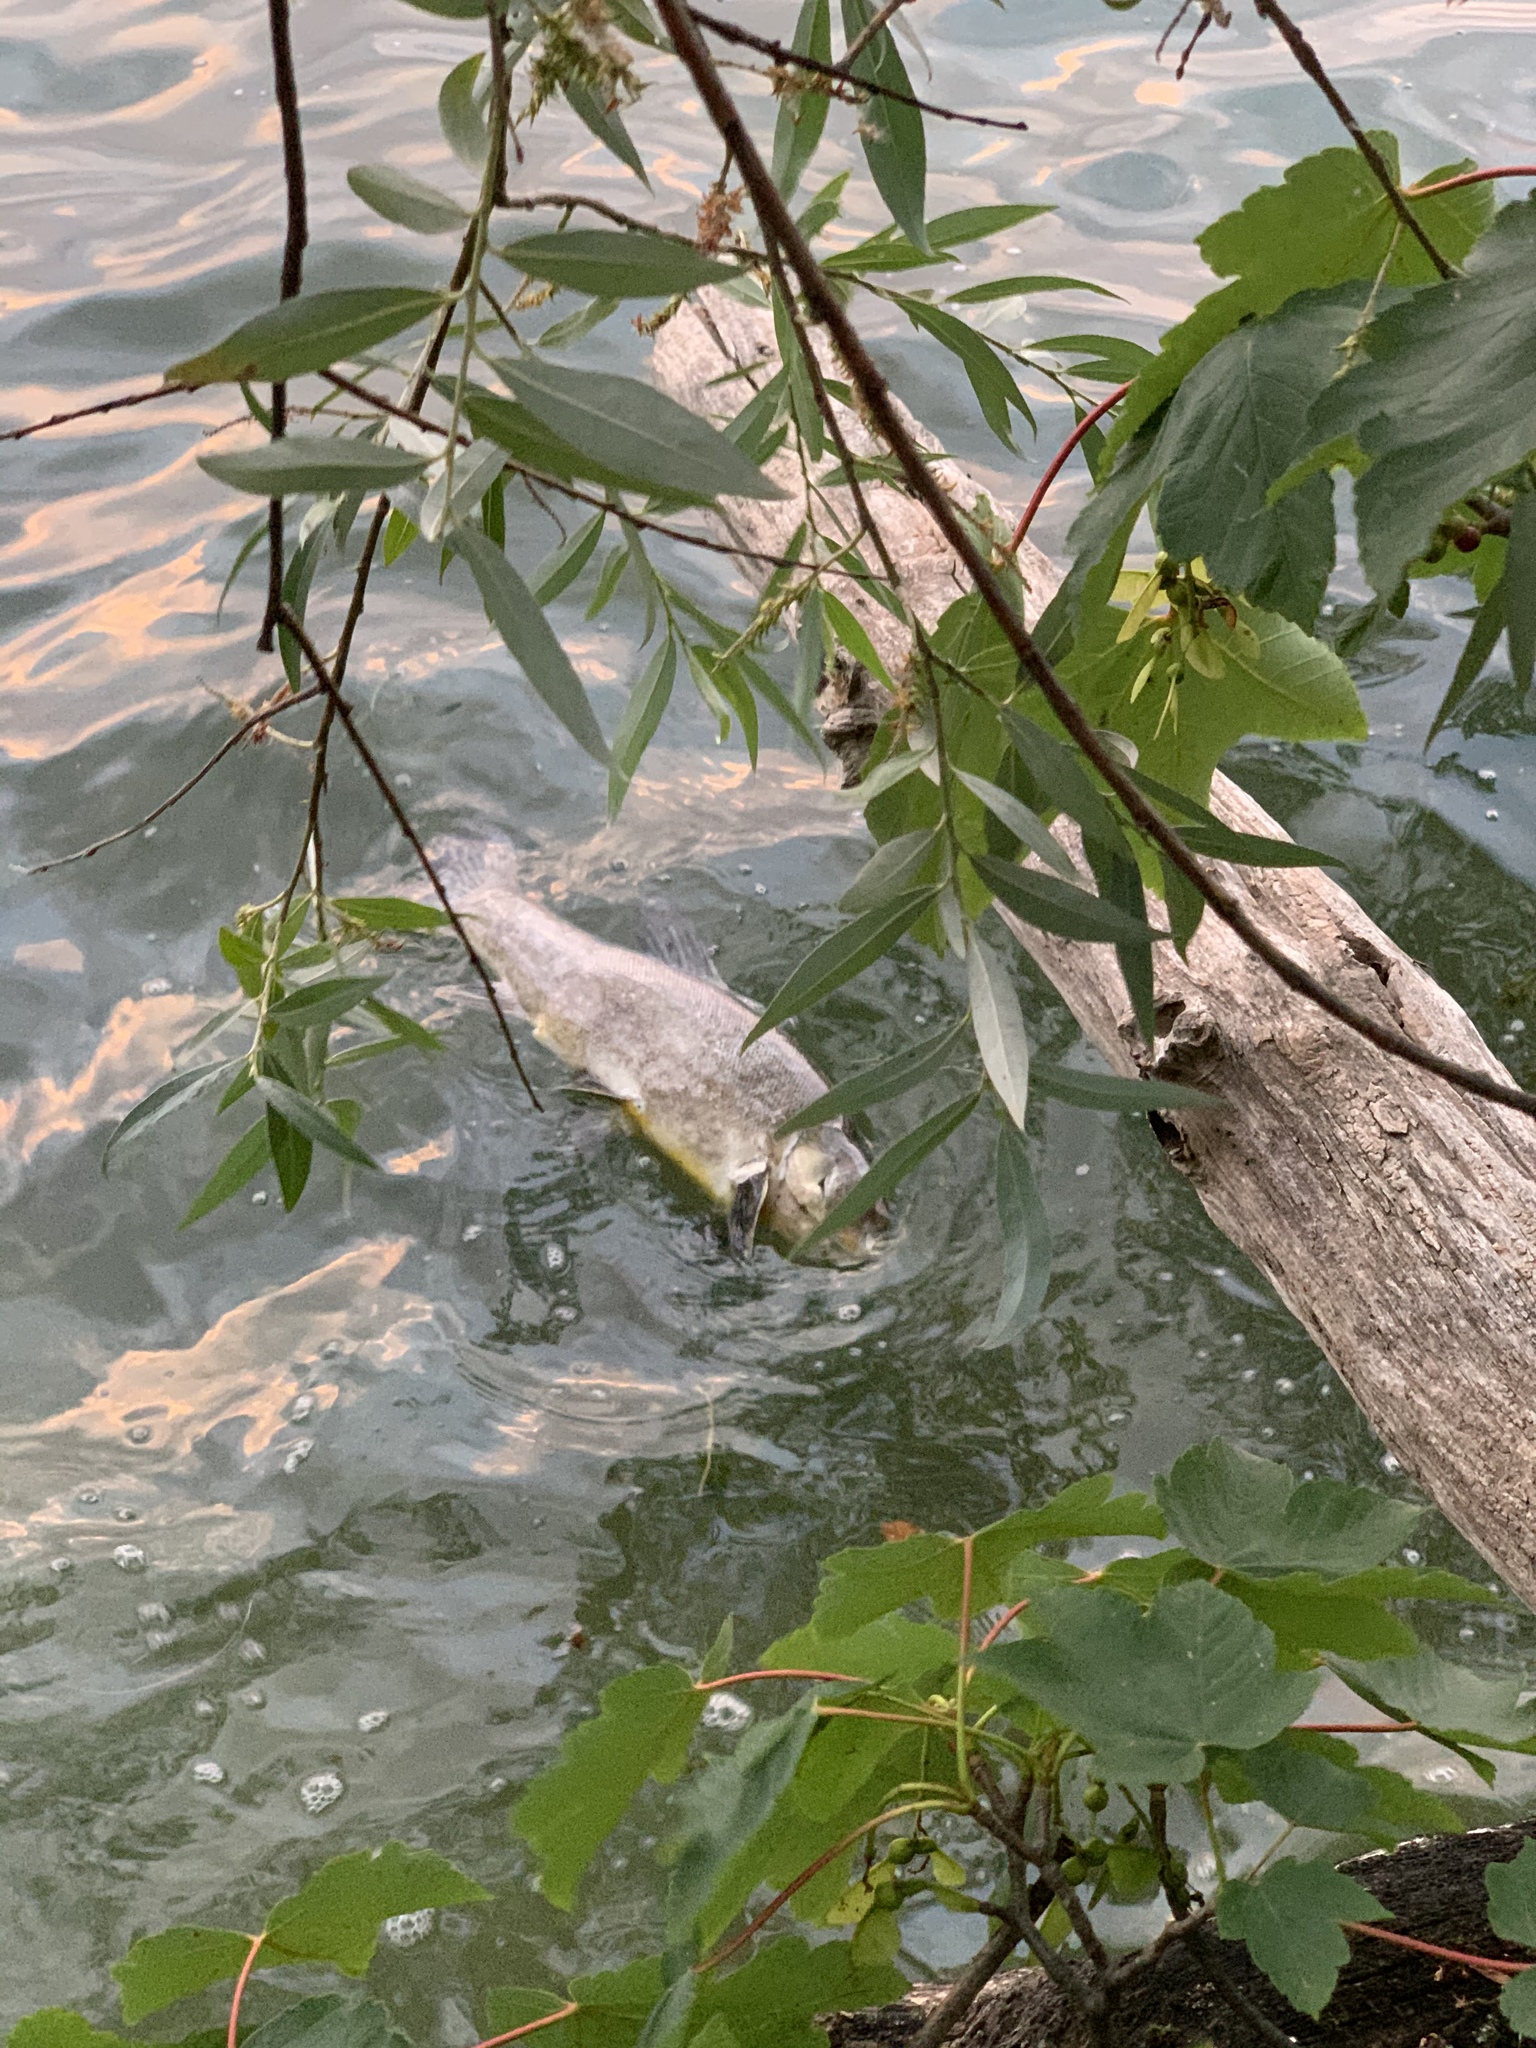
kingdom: Animalia
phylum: Chordata
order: Cypriniformes
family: Cyprinidae
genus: Tinca
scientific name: Tinca tinca
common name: Tench
